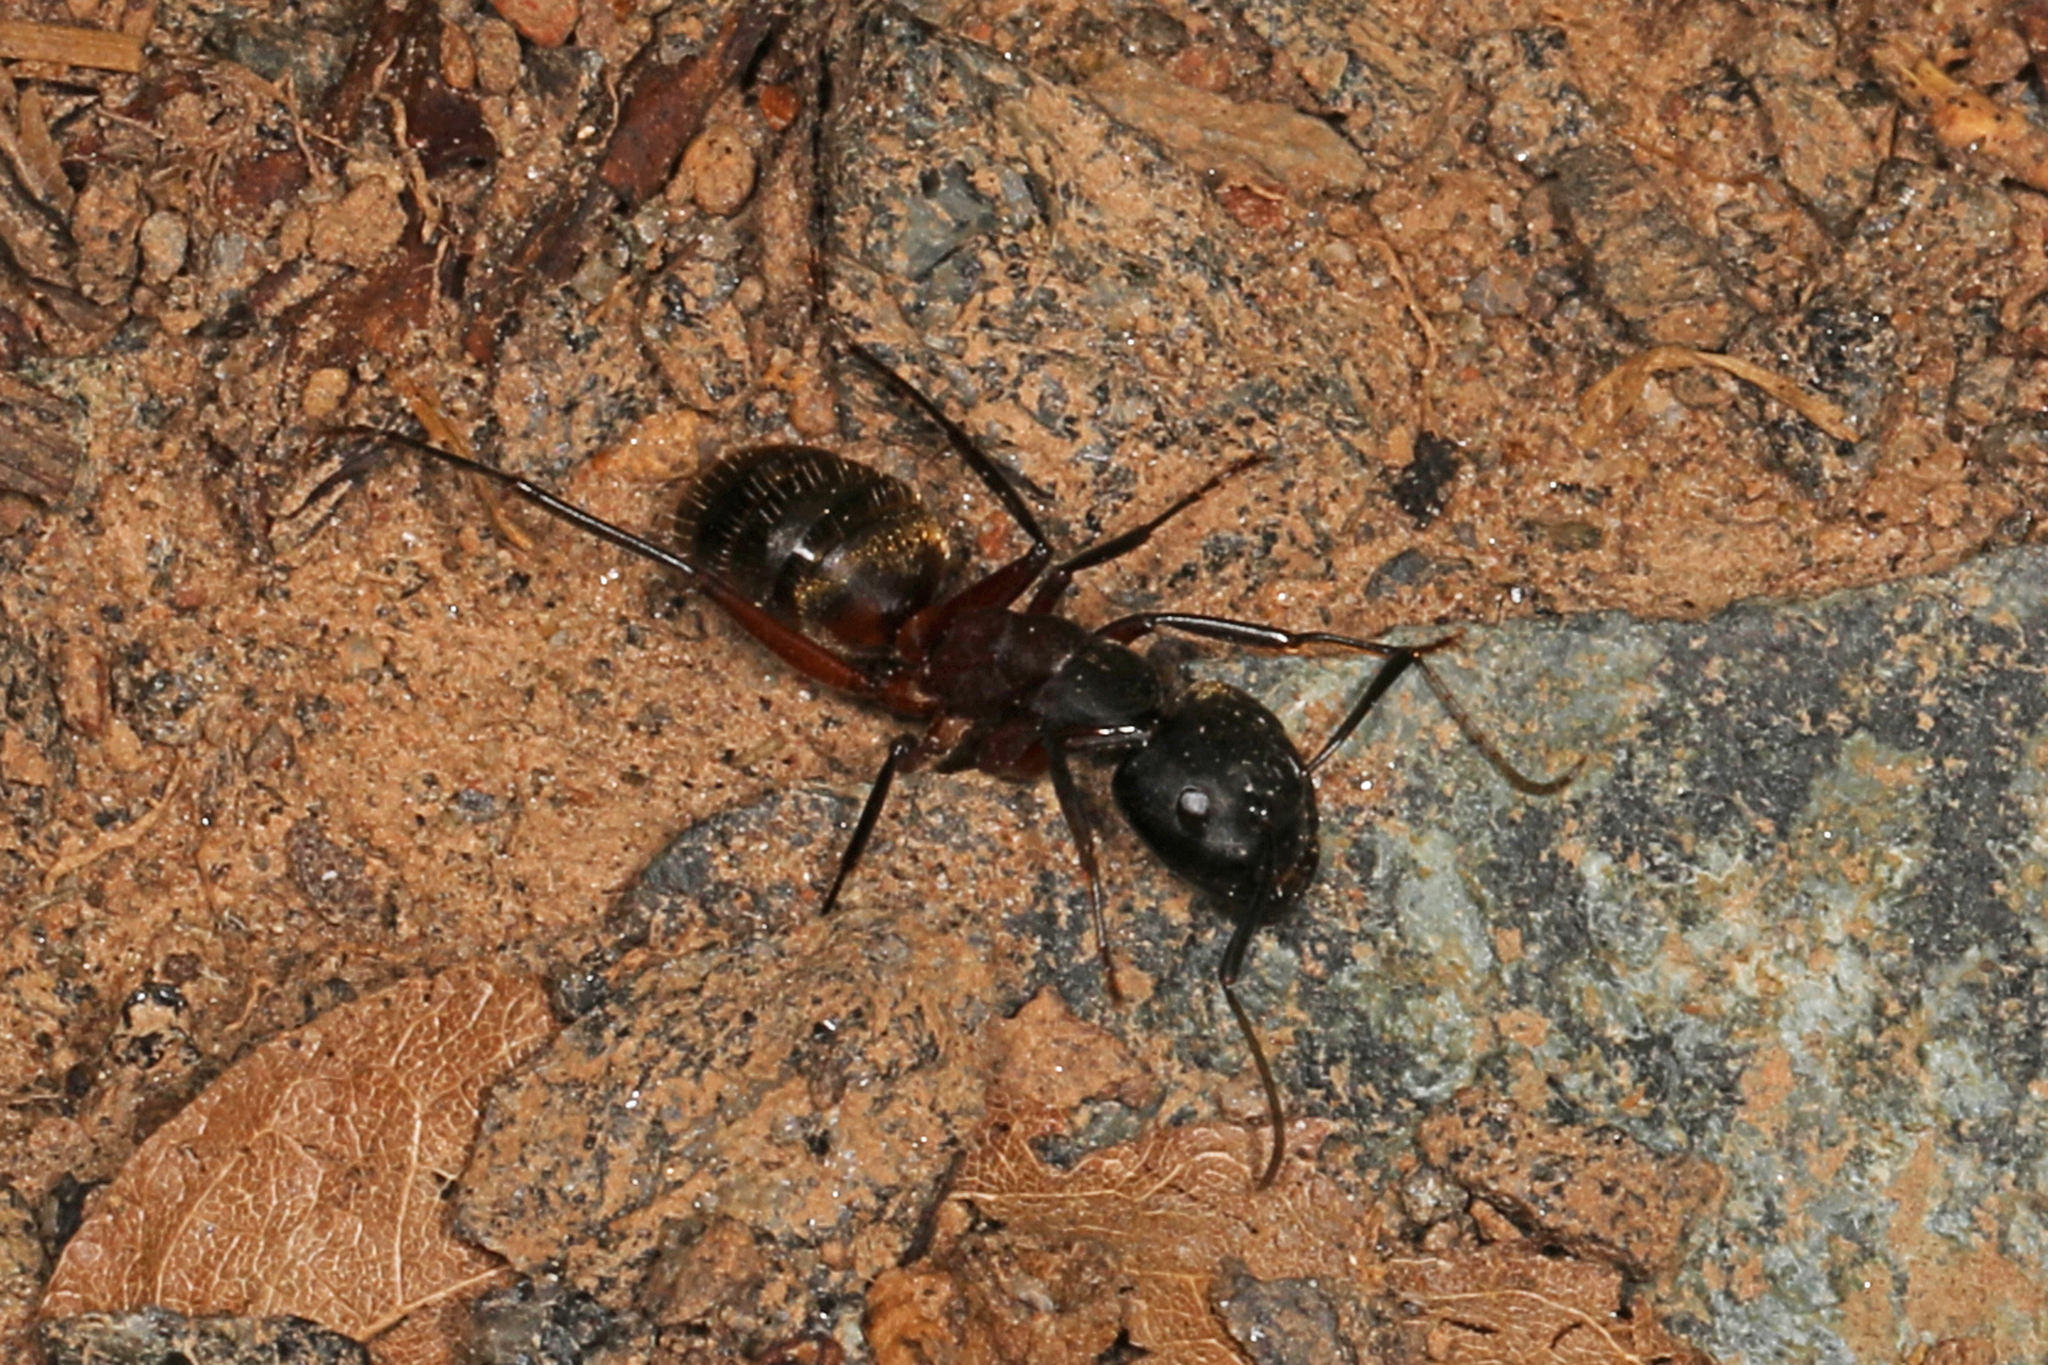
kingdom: Animalia
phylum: Arthropoda
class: Insecta
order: Hymenoptera
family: Formicidae
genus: Camponotus
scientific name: Camponotus chromaiodes
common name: Red carpenter ant
